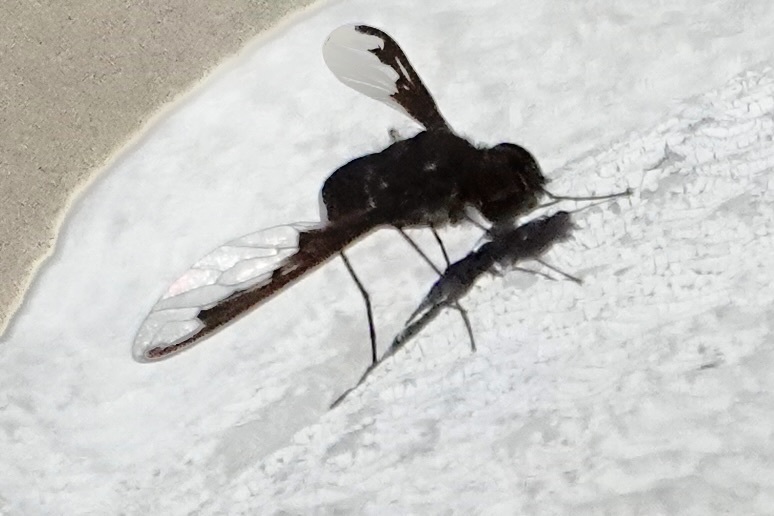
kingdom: Animalia
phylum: Arthropoda
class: Insecta
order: Diptera
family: Bombyliidae
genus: Anthrax
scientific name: Anthrax argyropygus
